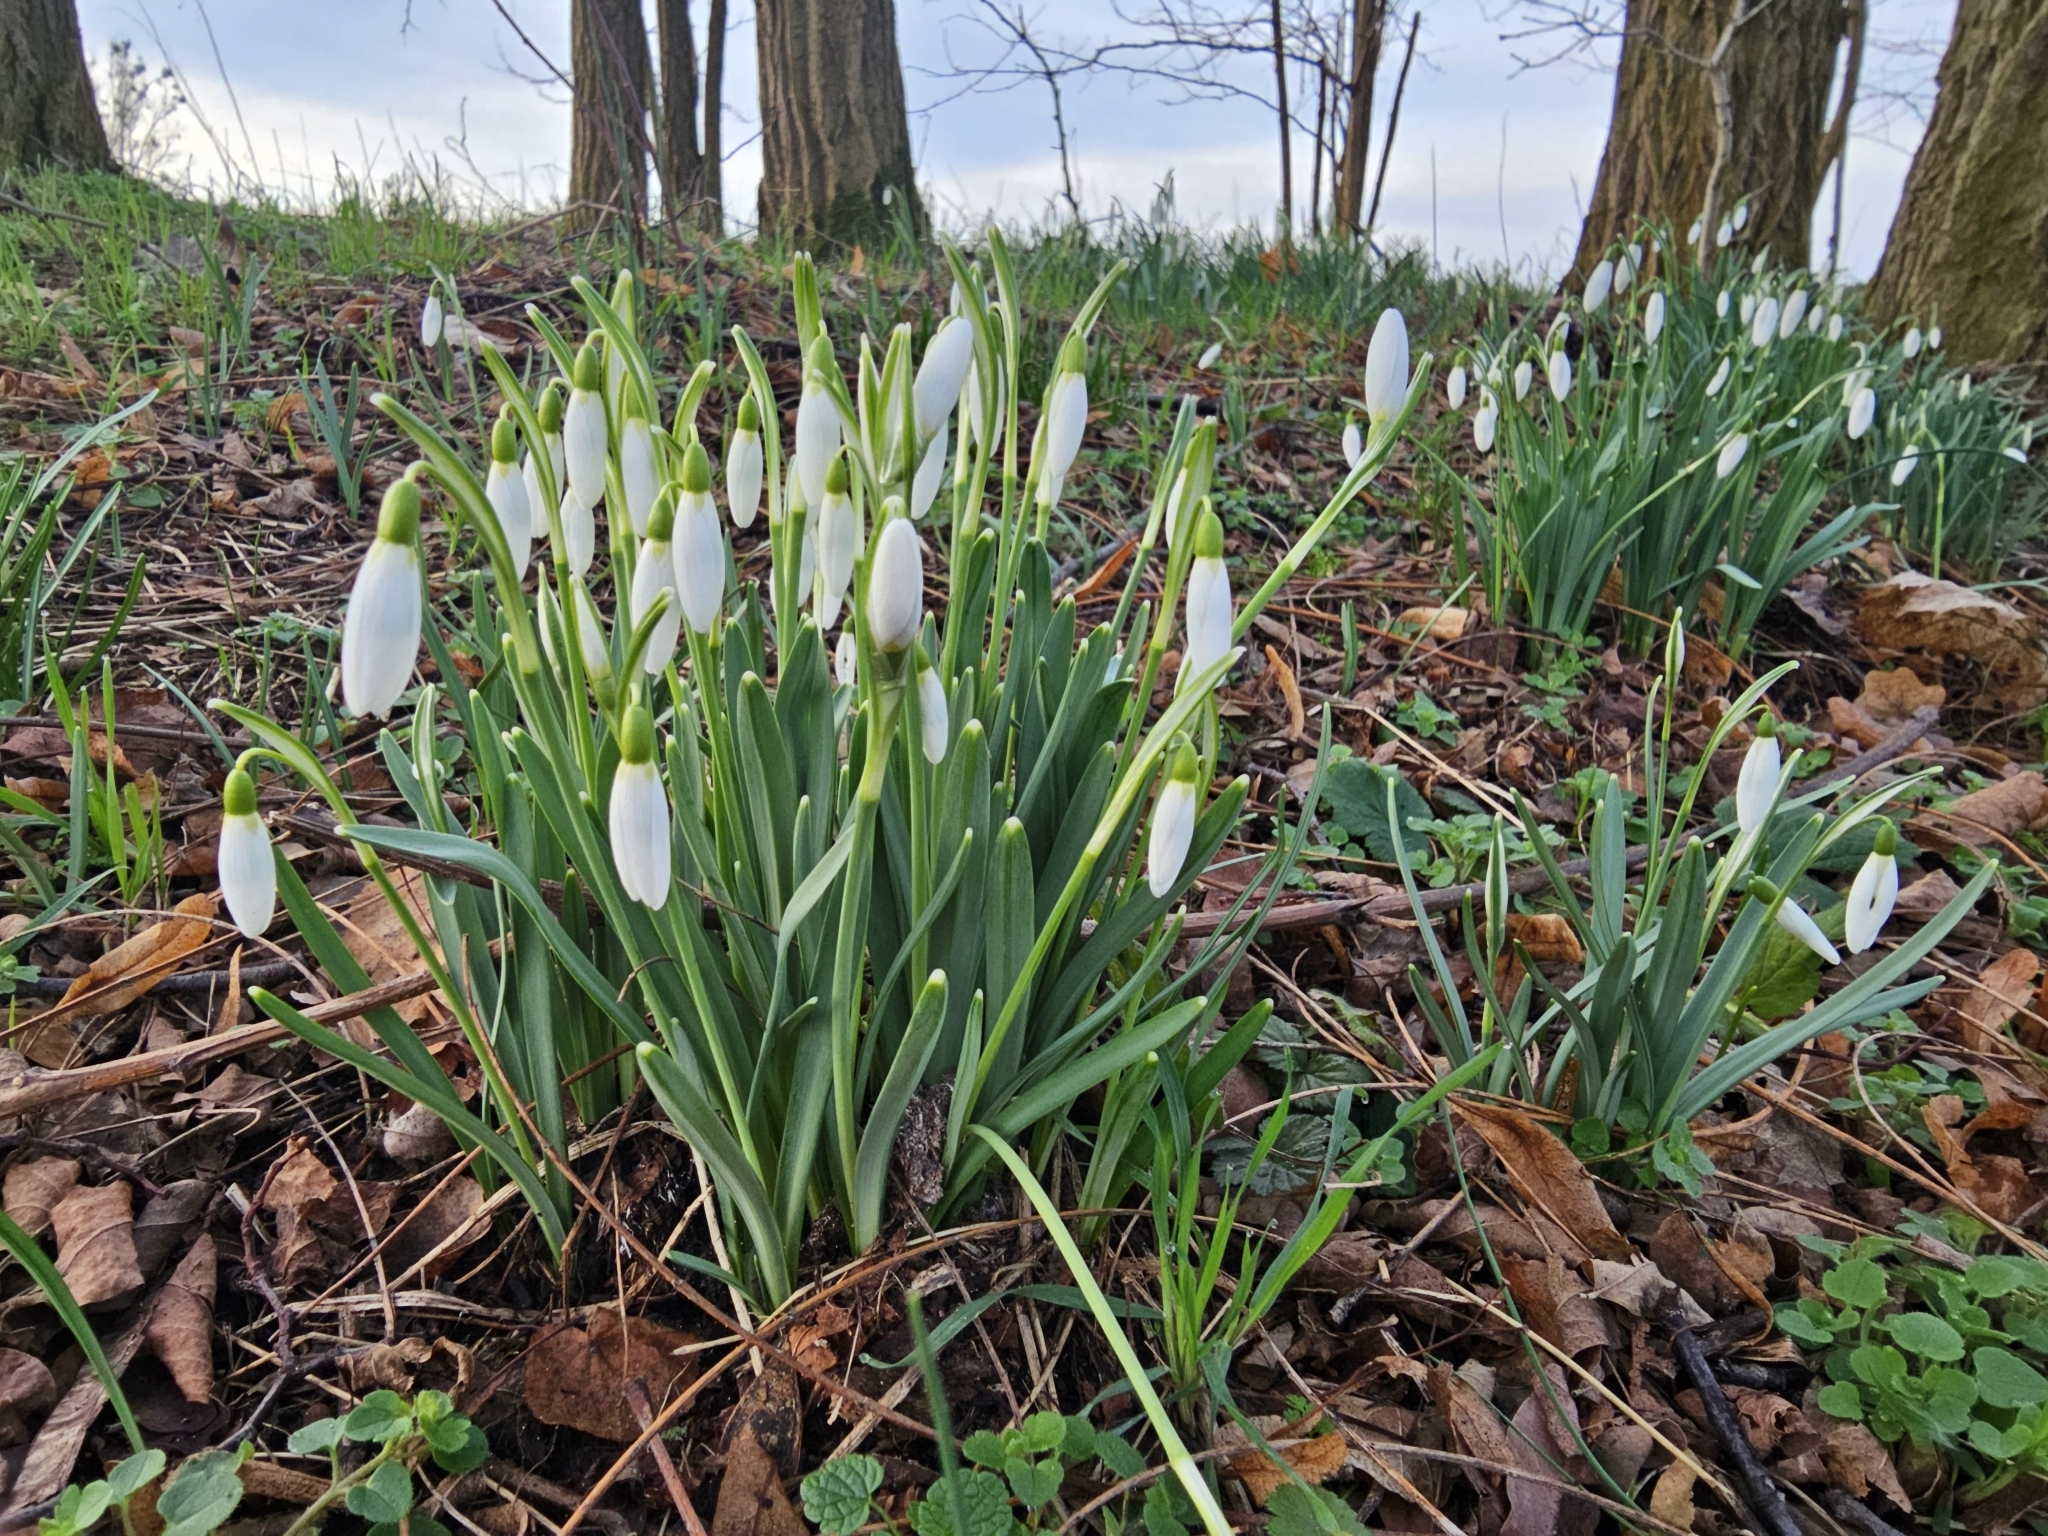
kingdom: Plantae
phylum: Tracheophyta
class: Liliopsida
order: Asparagales
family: Amaryllidaceae
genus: Galanthus
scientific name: Galanthus nivalis
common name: Snowdrop
